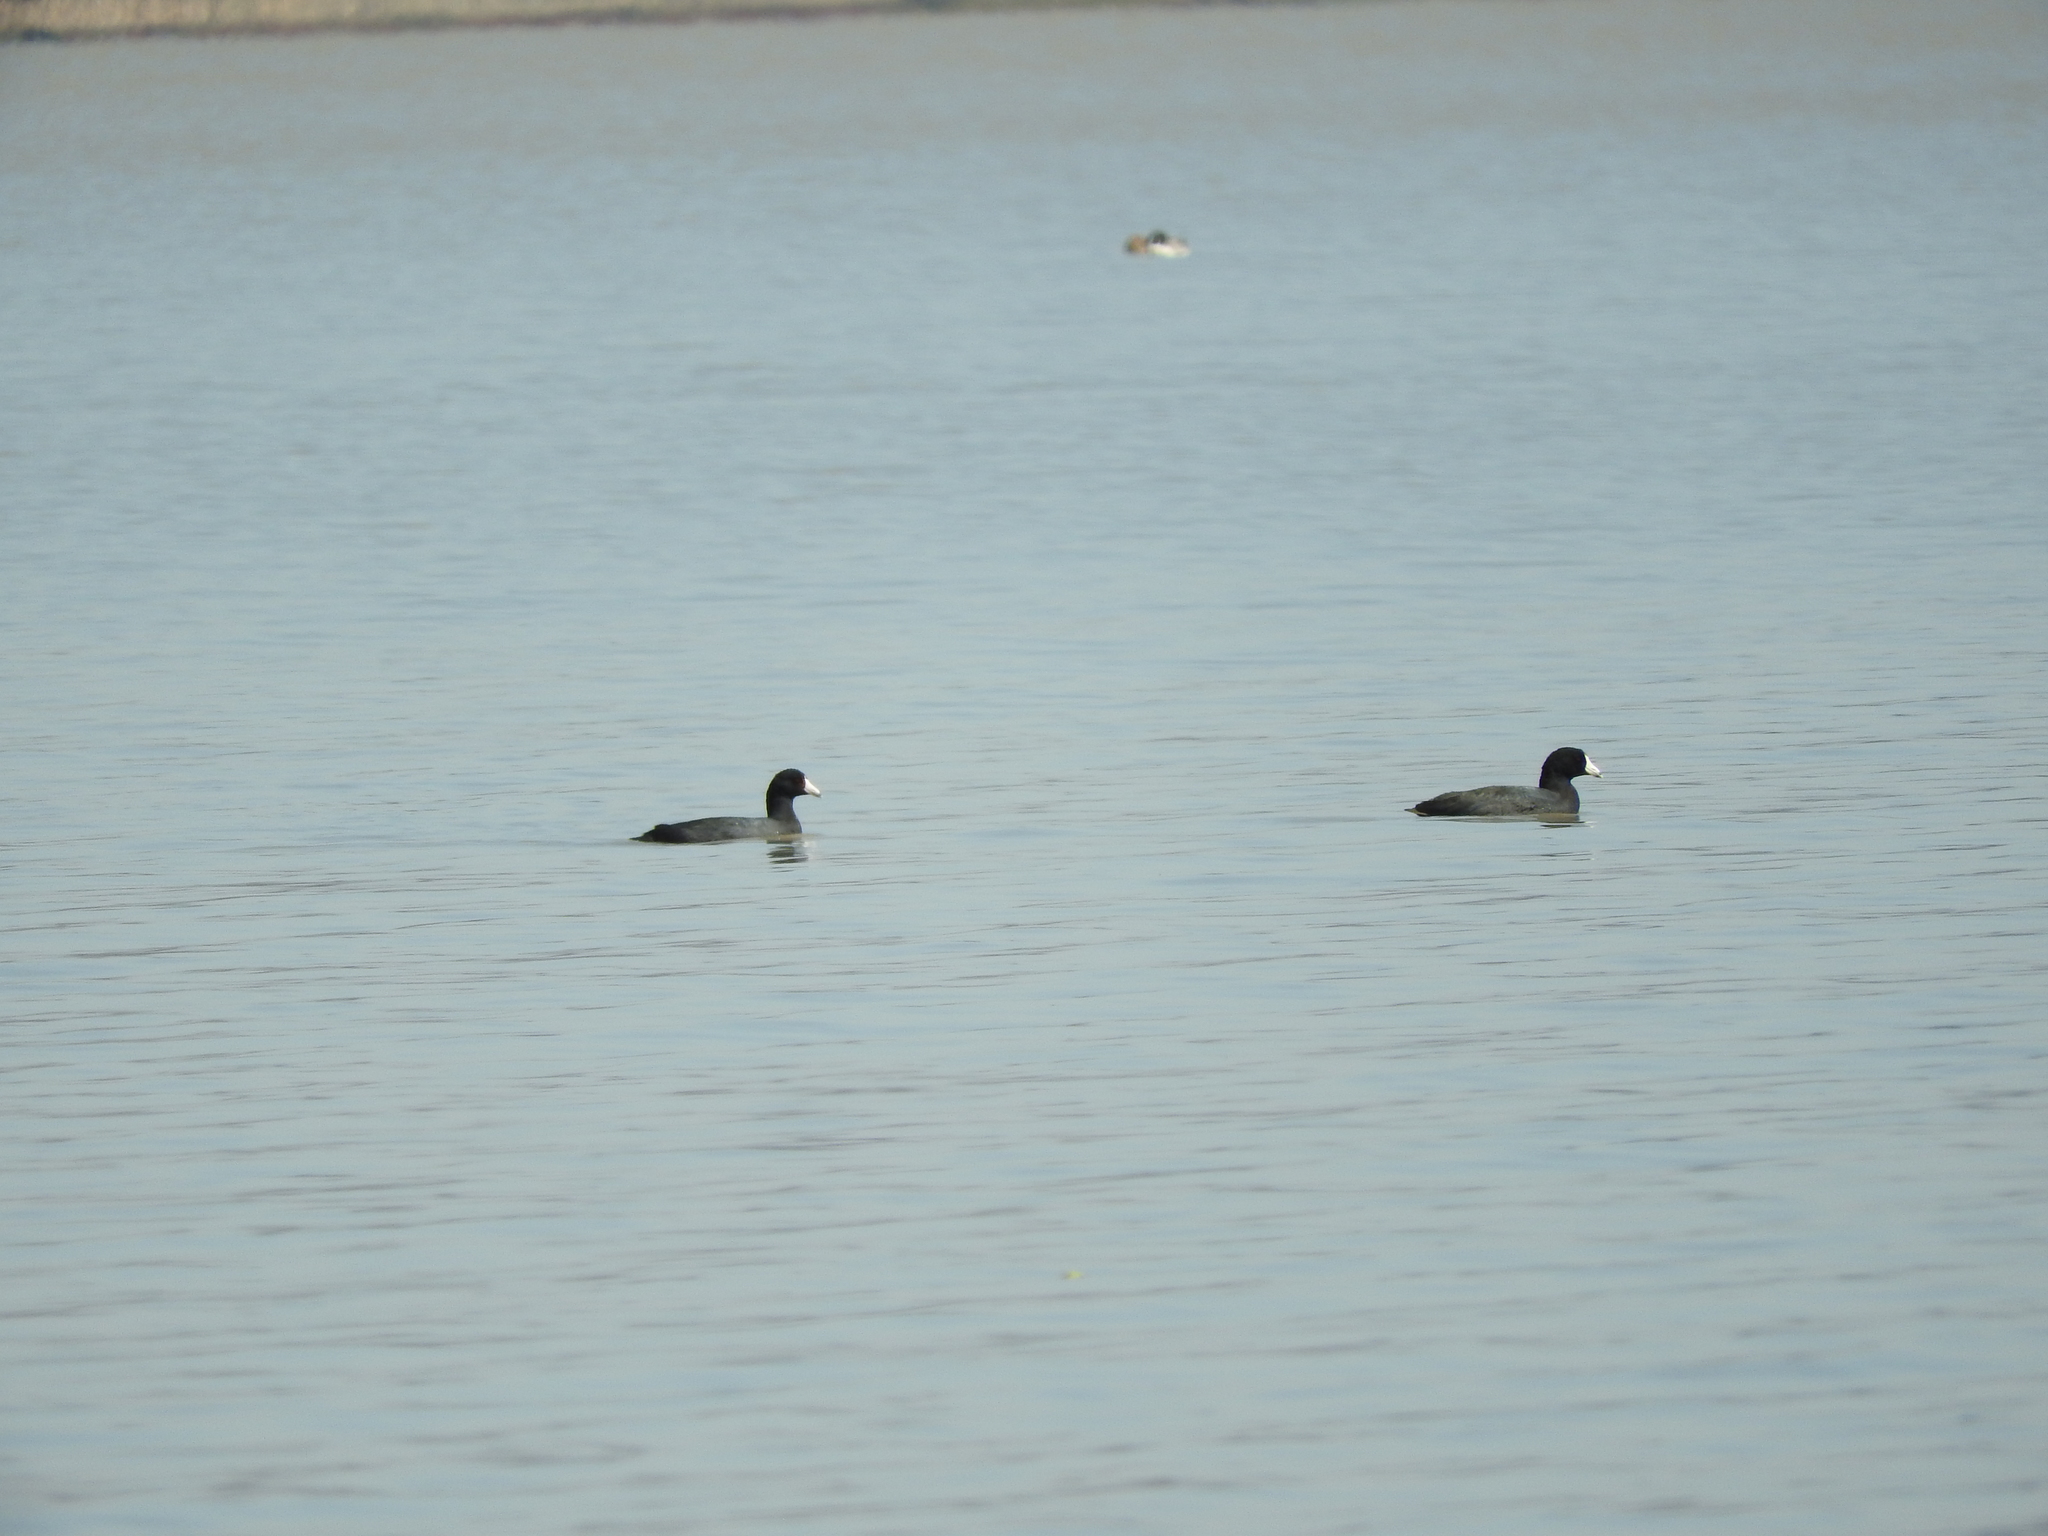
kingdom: Animalia
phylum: Chordata
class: Aves
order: Gruiformes
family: Rallidae
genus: Fulica
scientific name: Fulica americana
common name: American coot
